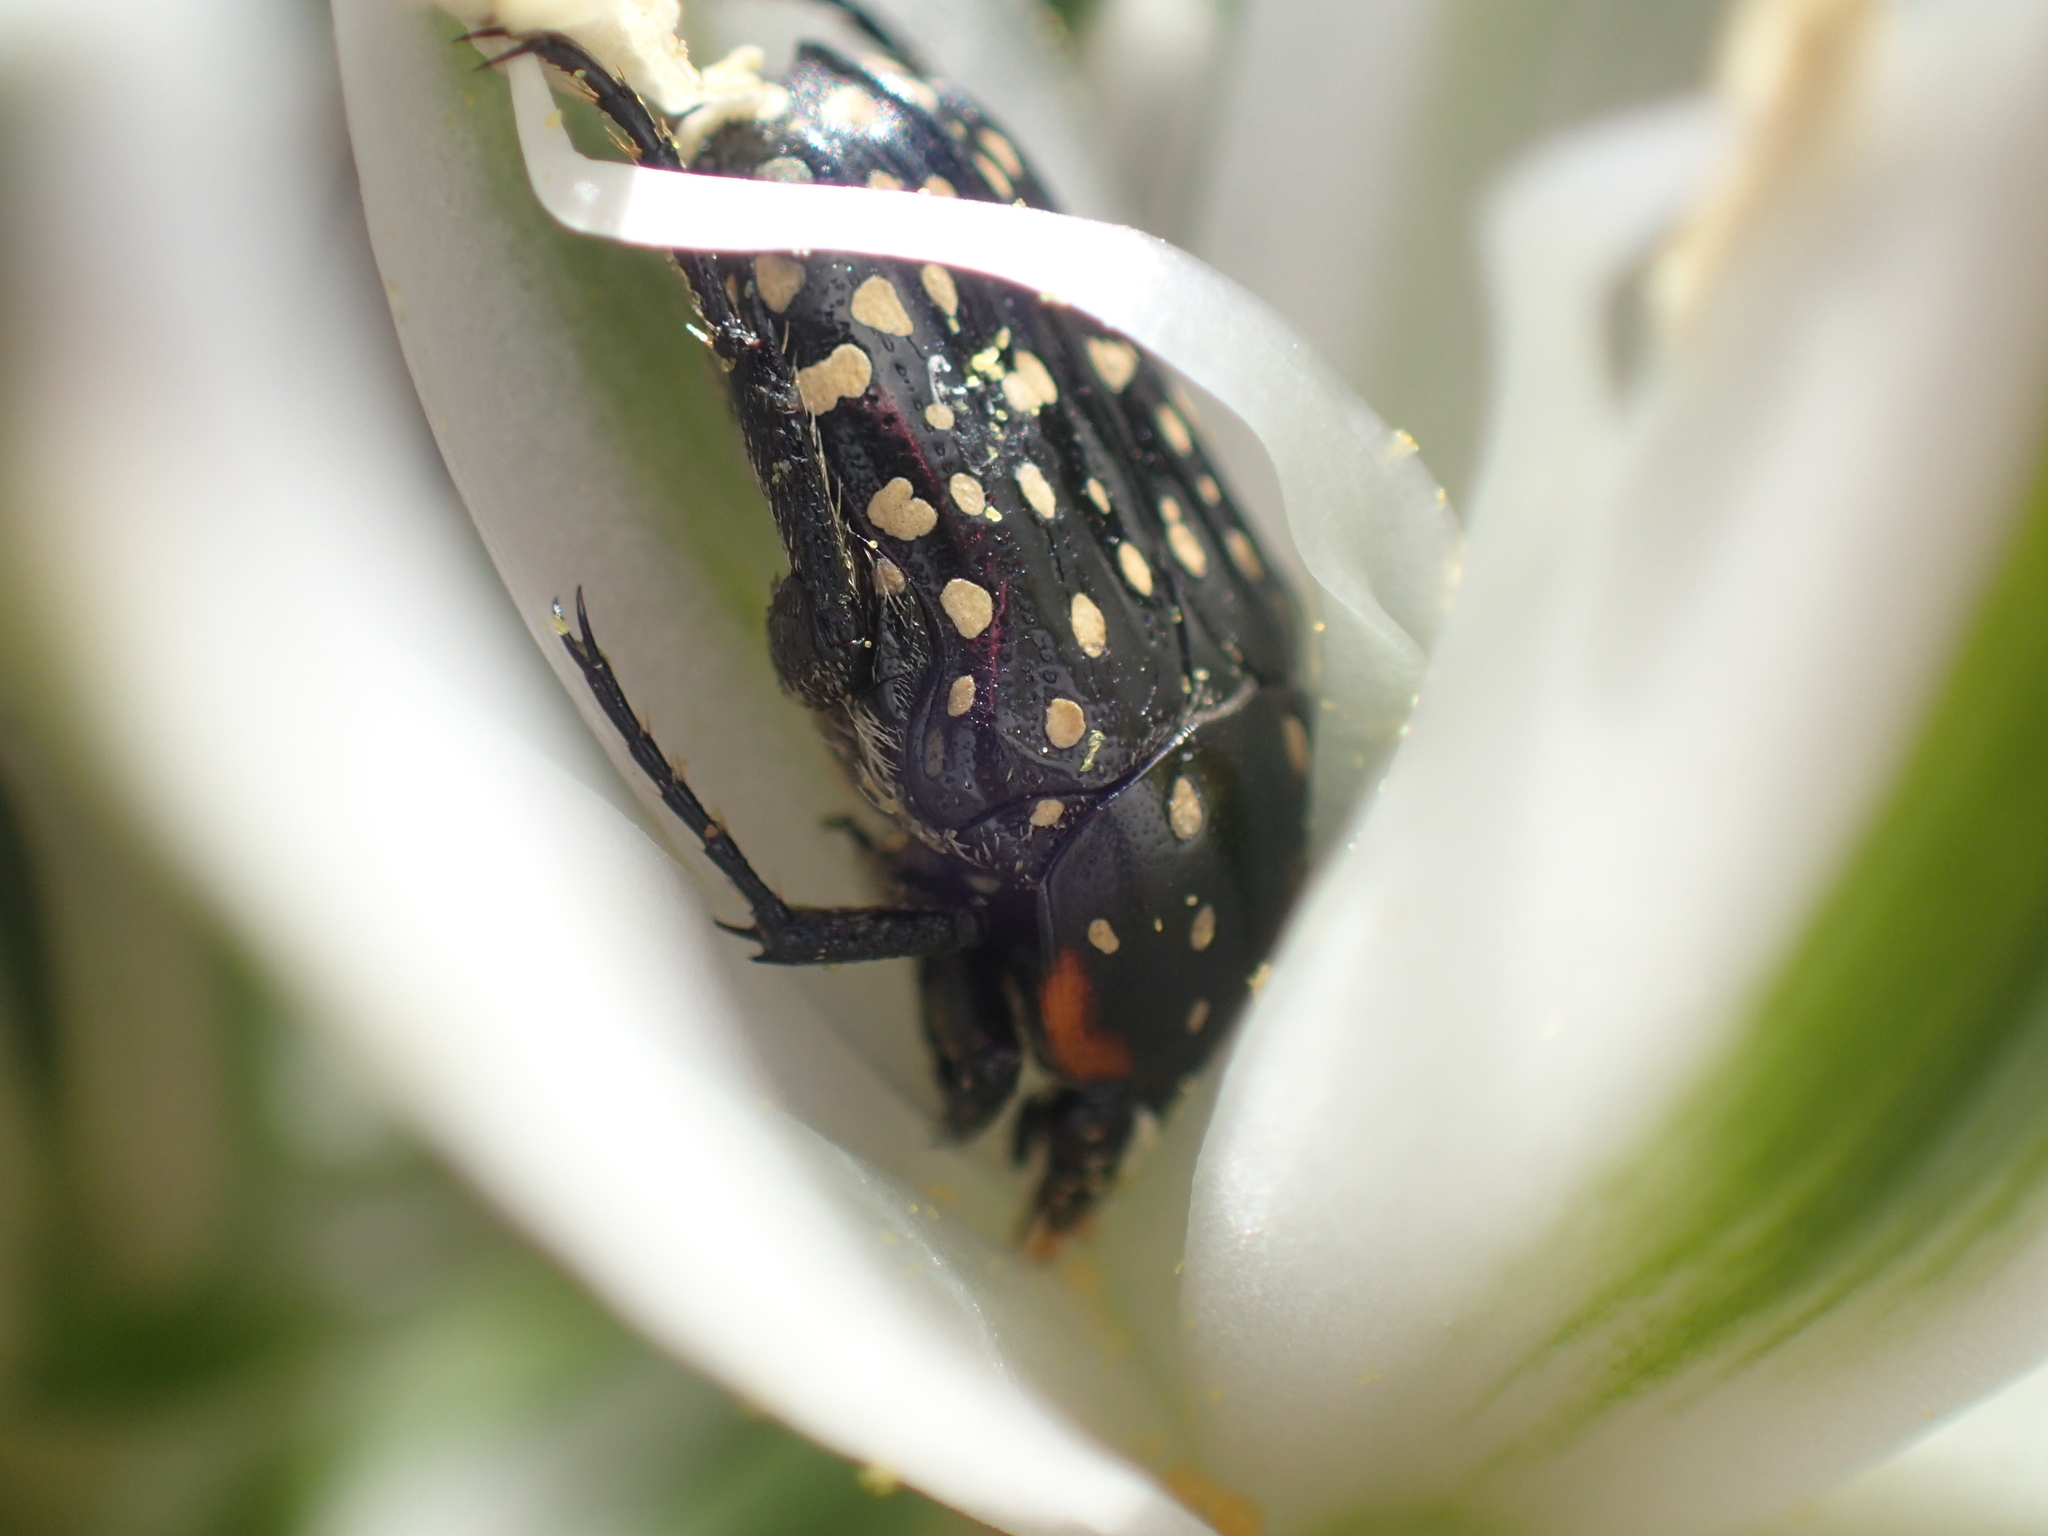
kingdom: Animalia
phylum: Arthropoda
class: Insecta
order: Coleoptera
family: Scarabaeidae
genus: Oxythyrea
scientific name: Oxythyrea
